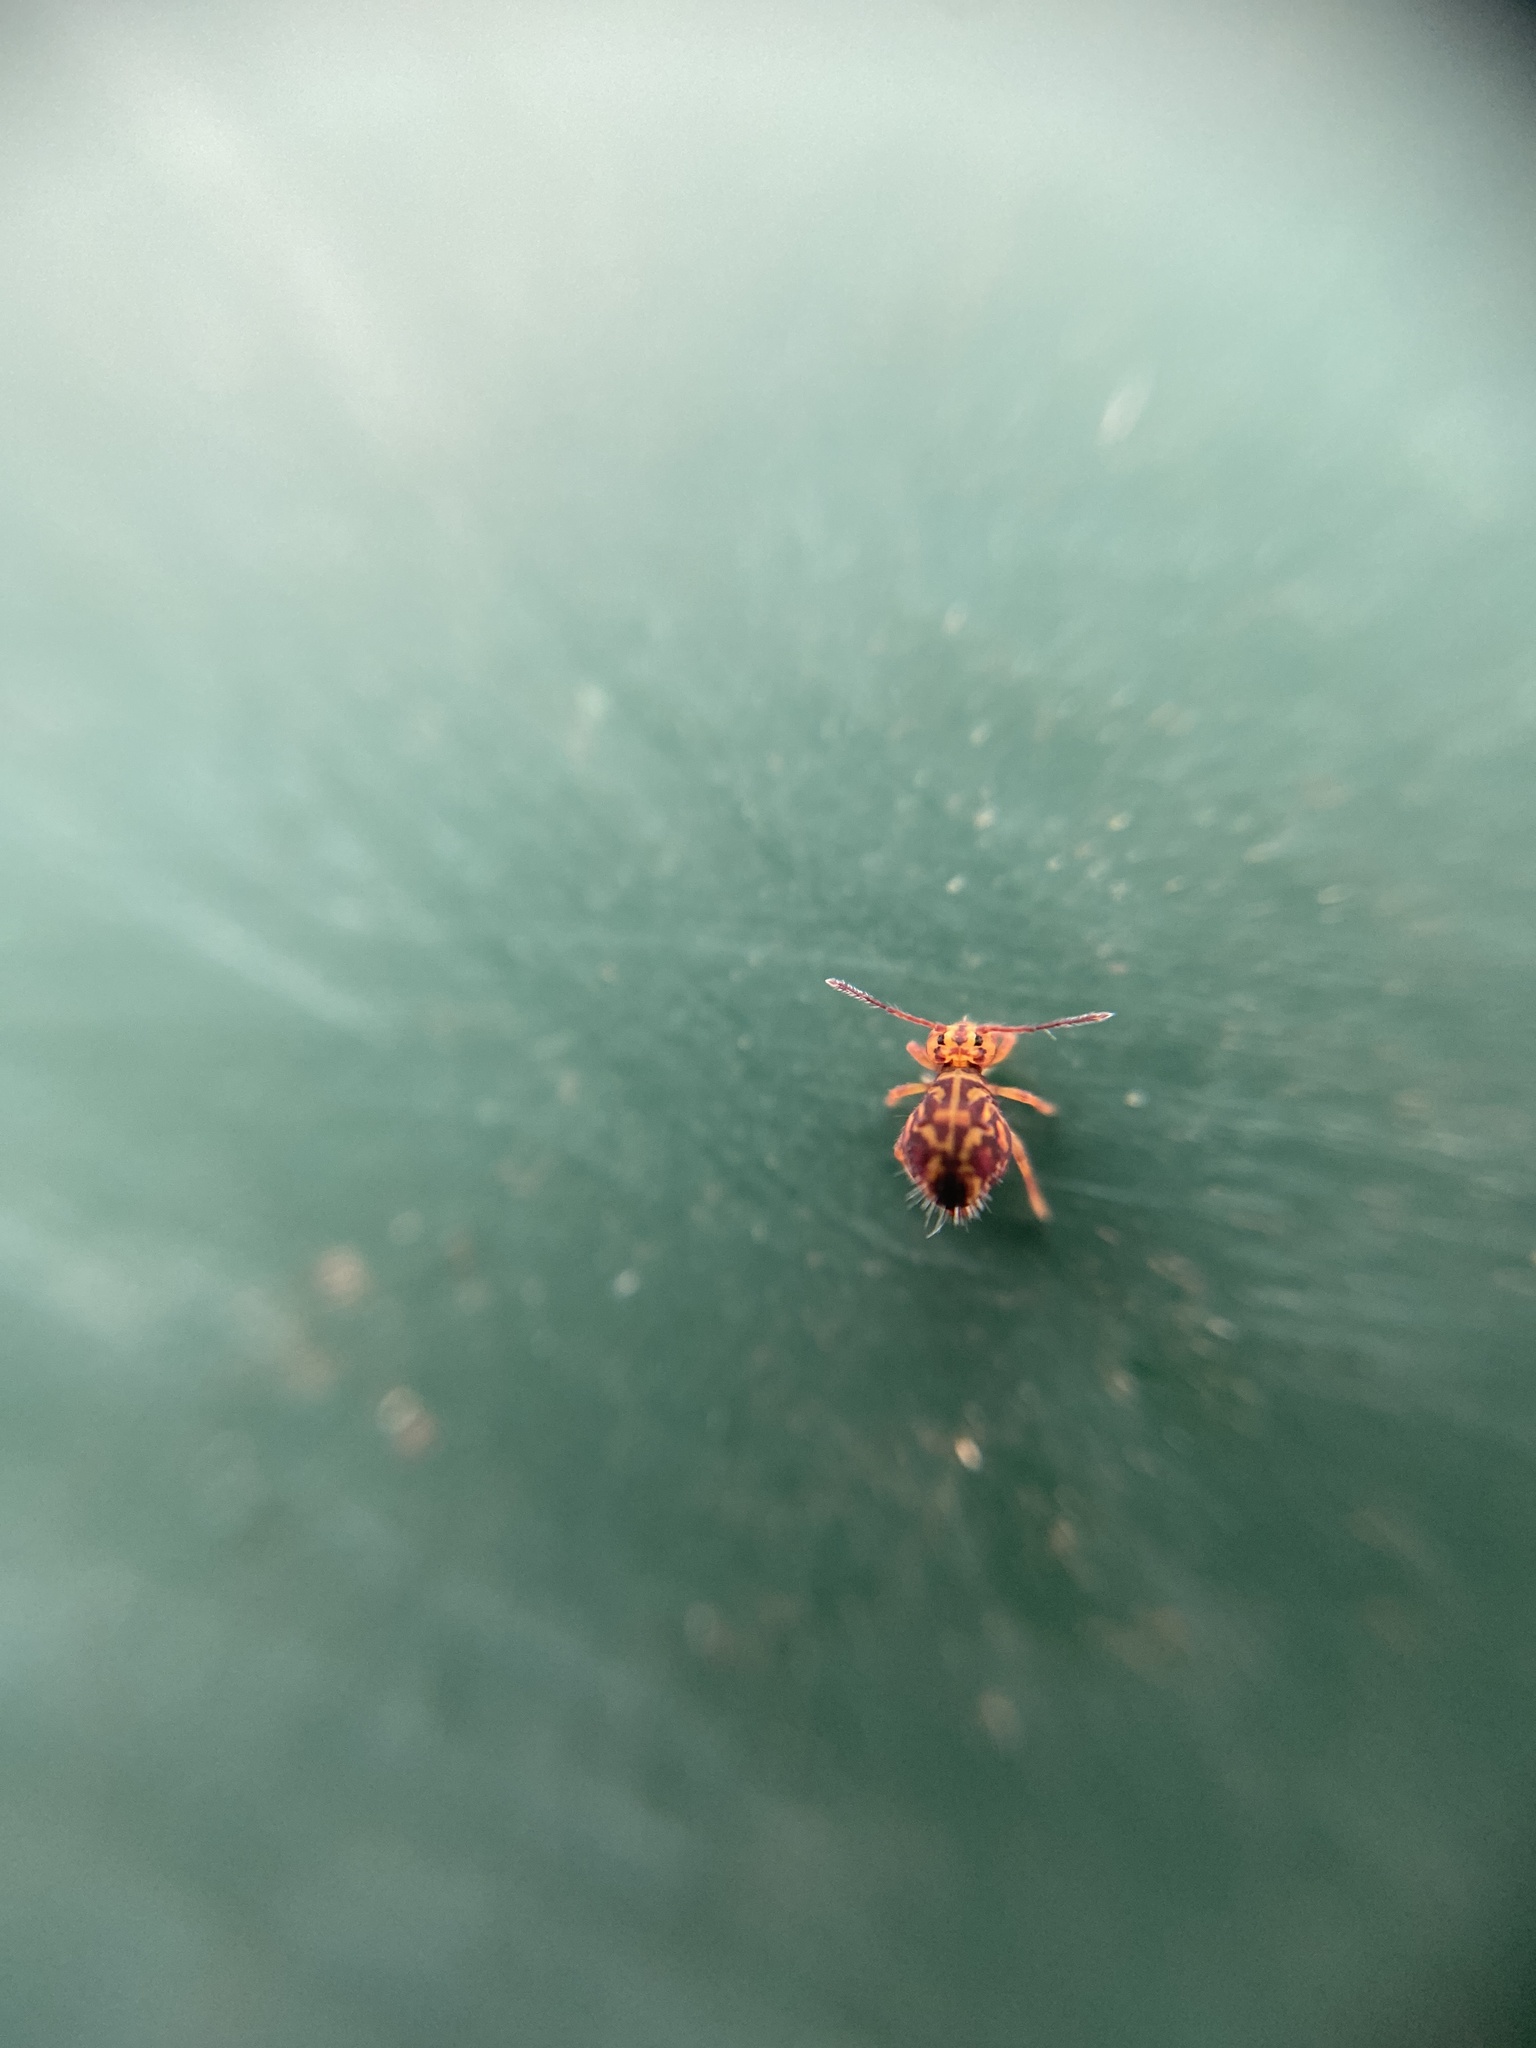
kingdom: Animalia
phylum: Arthropoda
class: Collembola
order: Symphypleona
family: Dicyrtomidae
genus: Dicyrtomina
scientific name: Dicyrtomina ornata
